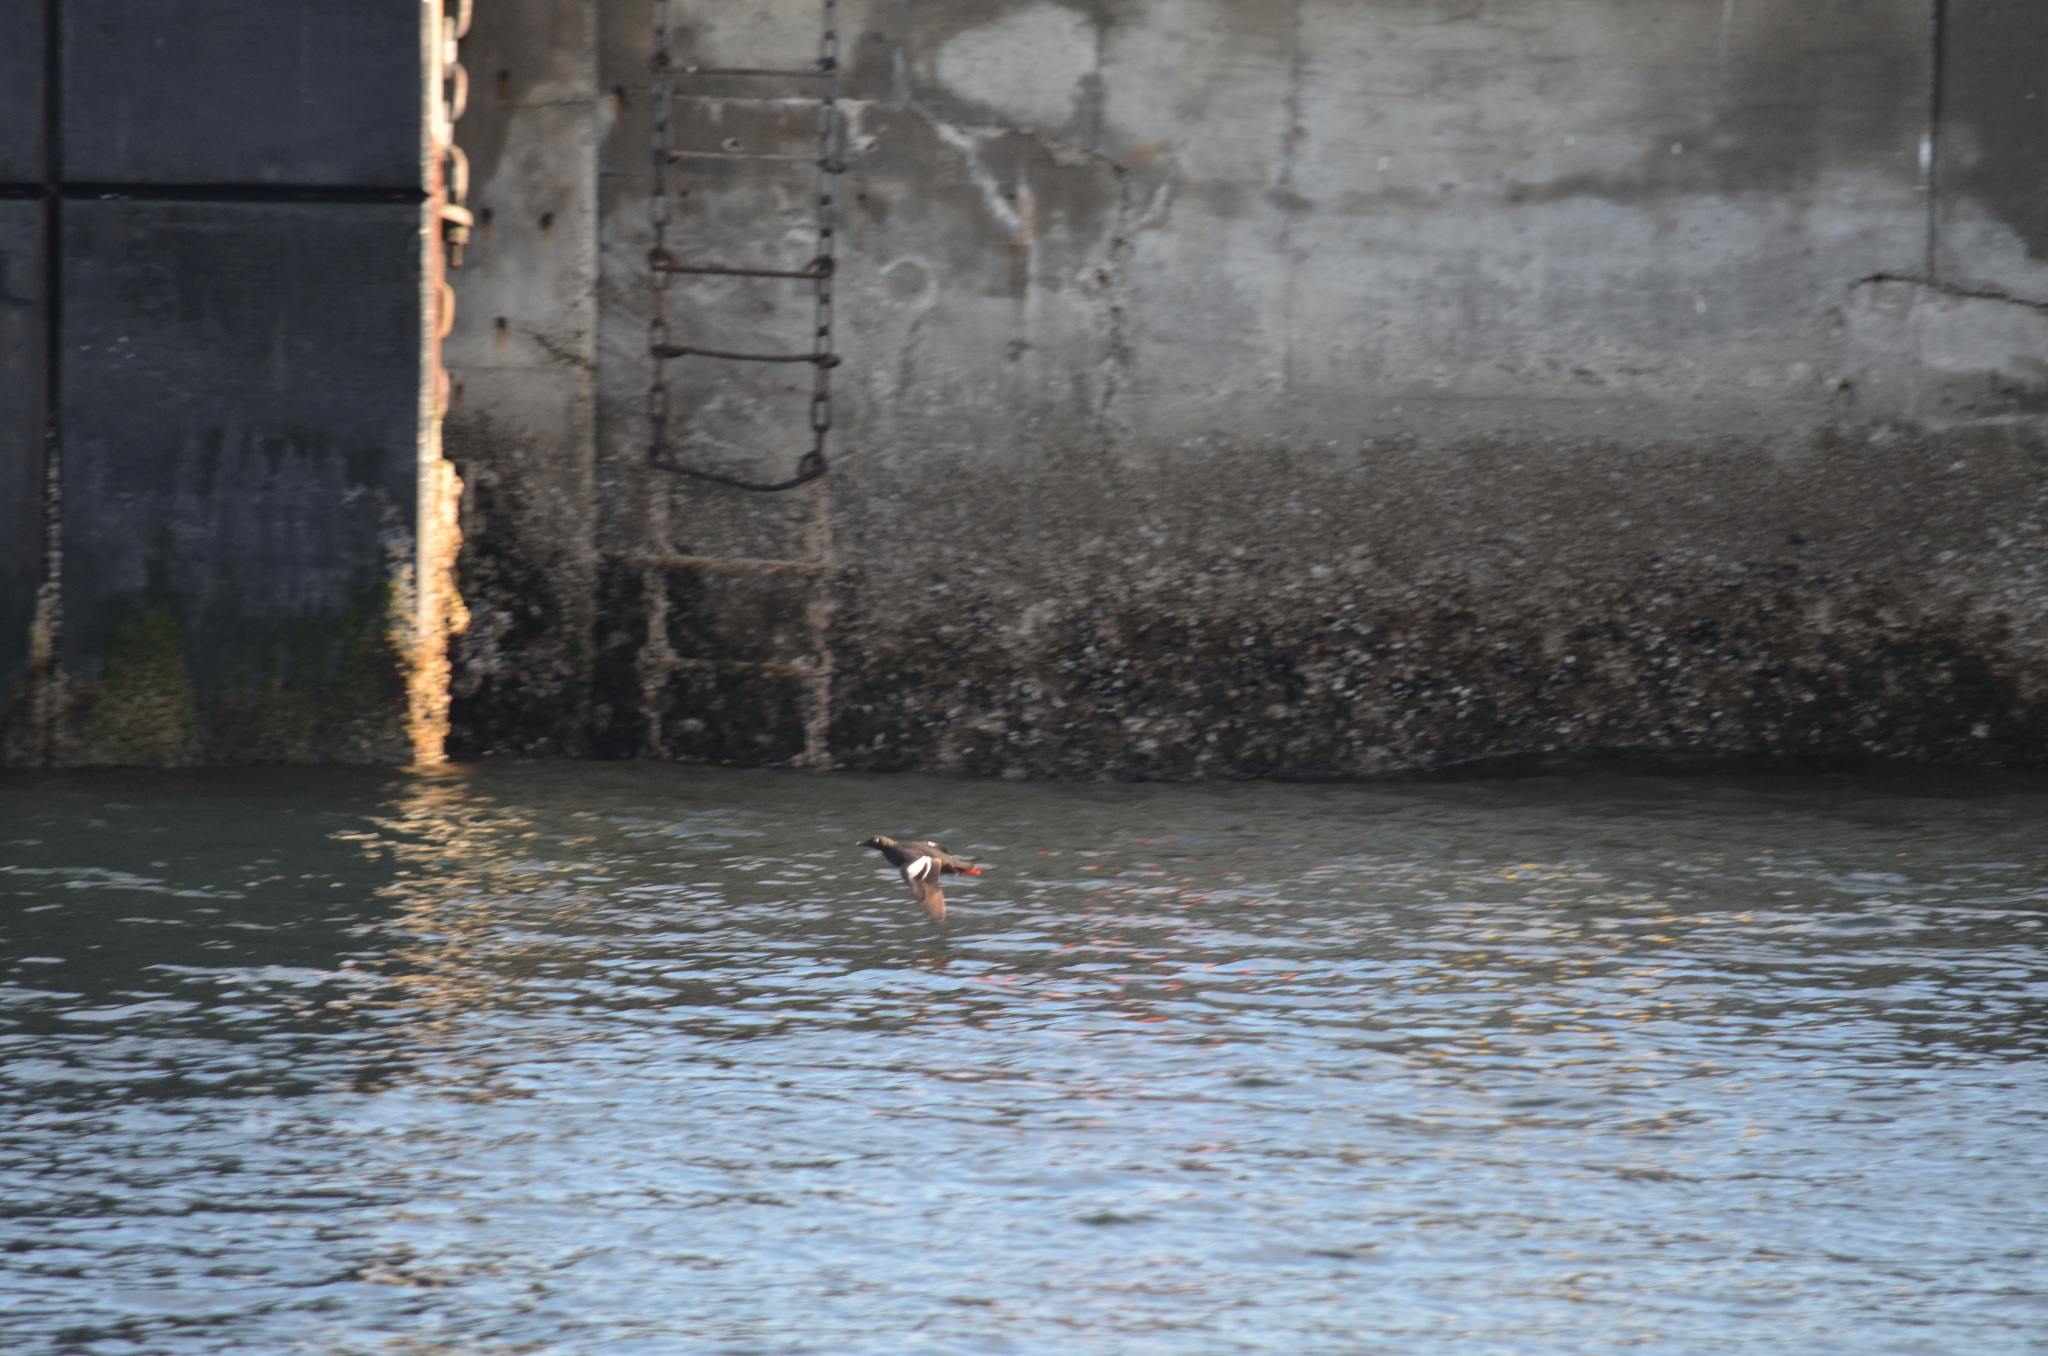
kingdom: Animalia
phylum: Chordata
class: Aves
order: Charadriiformes
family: Alcidae
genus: Cepphus
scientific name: Cepphus columba
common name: Pigeon guillemot
